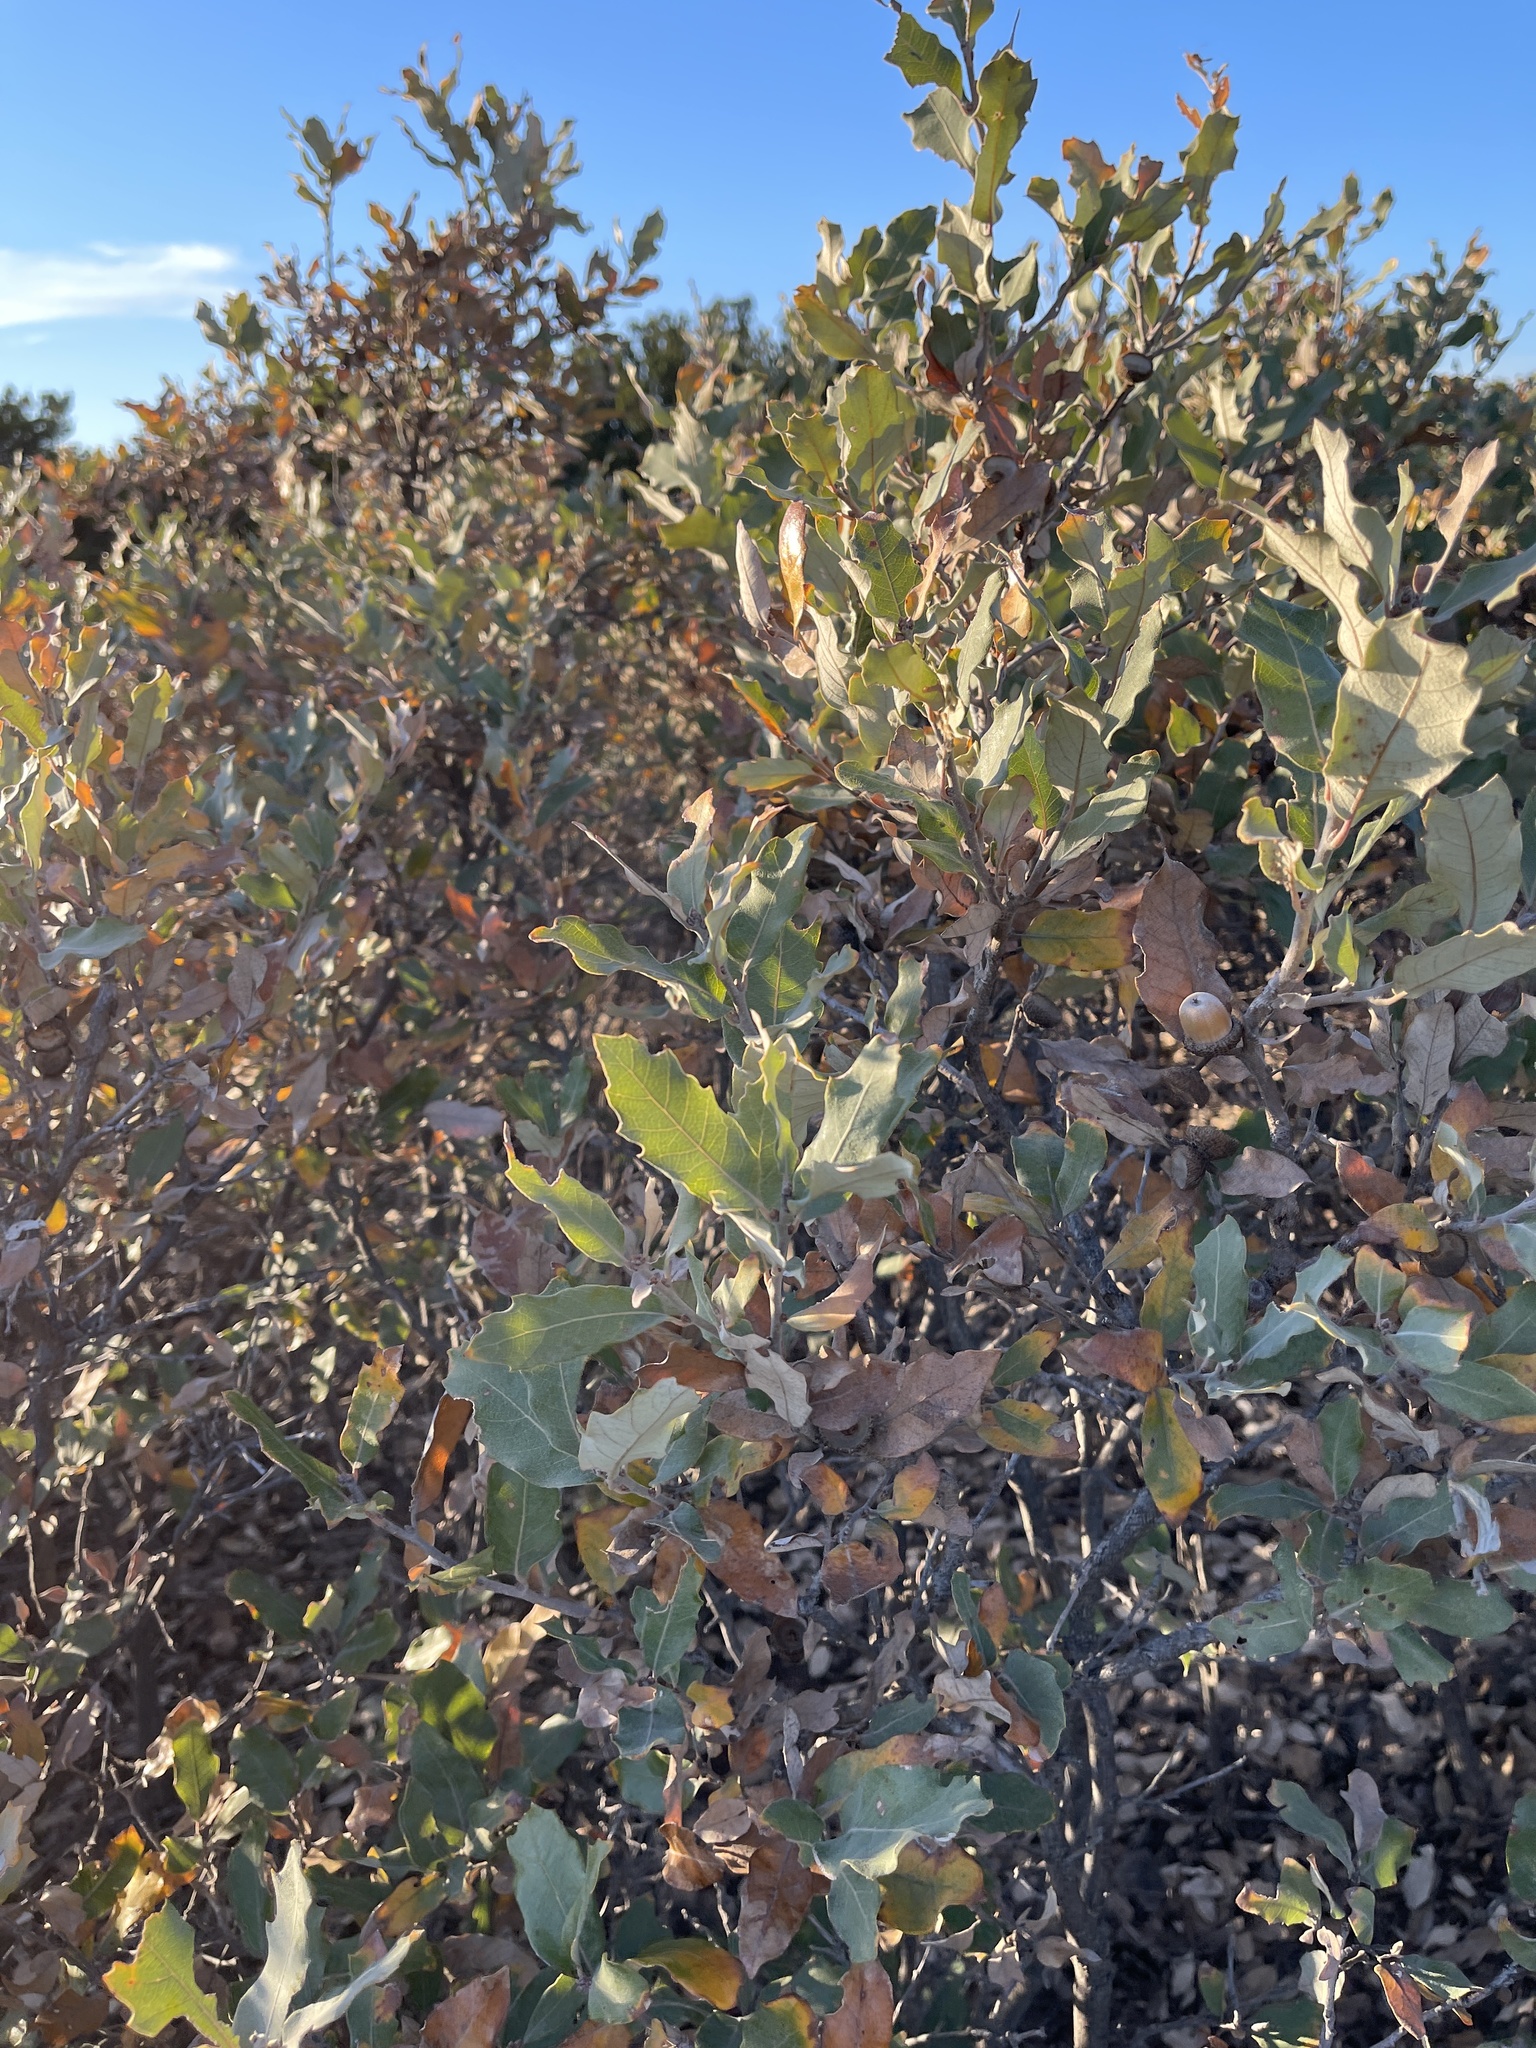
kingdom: Plantae
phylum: Tracheophyta
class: Magnoliopsida
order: Fagales
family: Fagaceae
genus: Quercus
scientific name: Quercus havardii
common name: Shinnery oak
